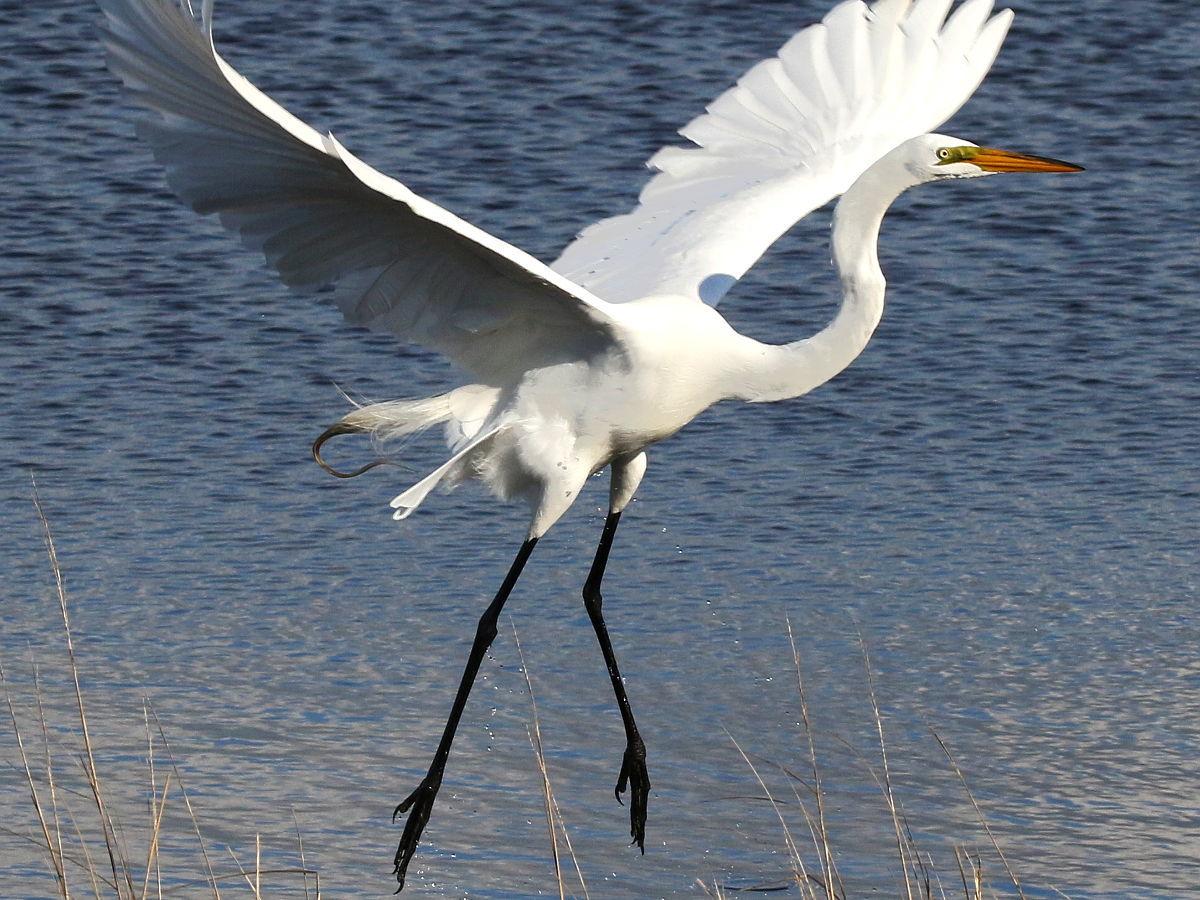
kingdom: Animalia
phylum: Chordata
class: Aves
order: Pelecaniformes
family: Ardeidae
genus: Ardea
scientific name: Ardea alba
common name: Great egret
